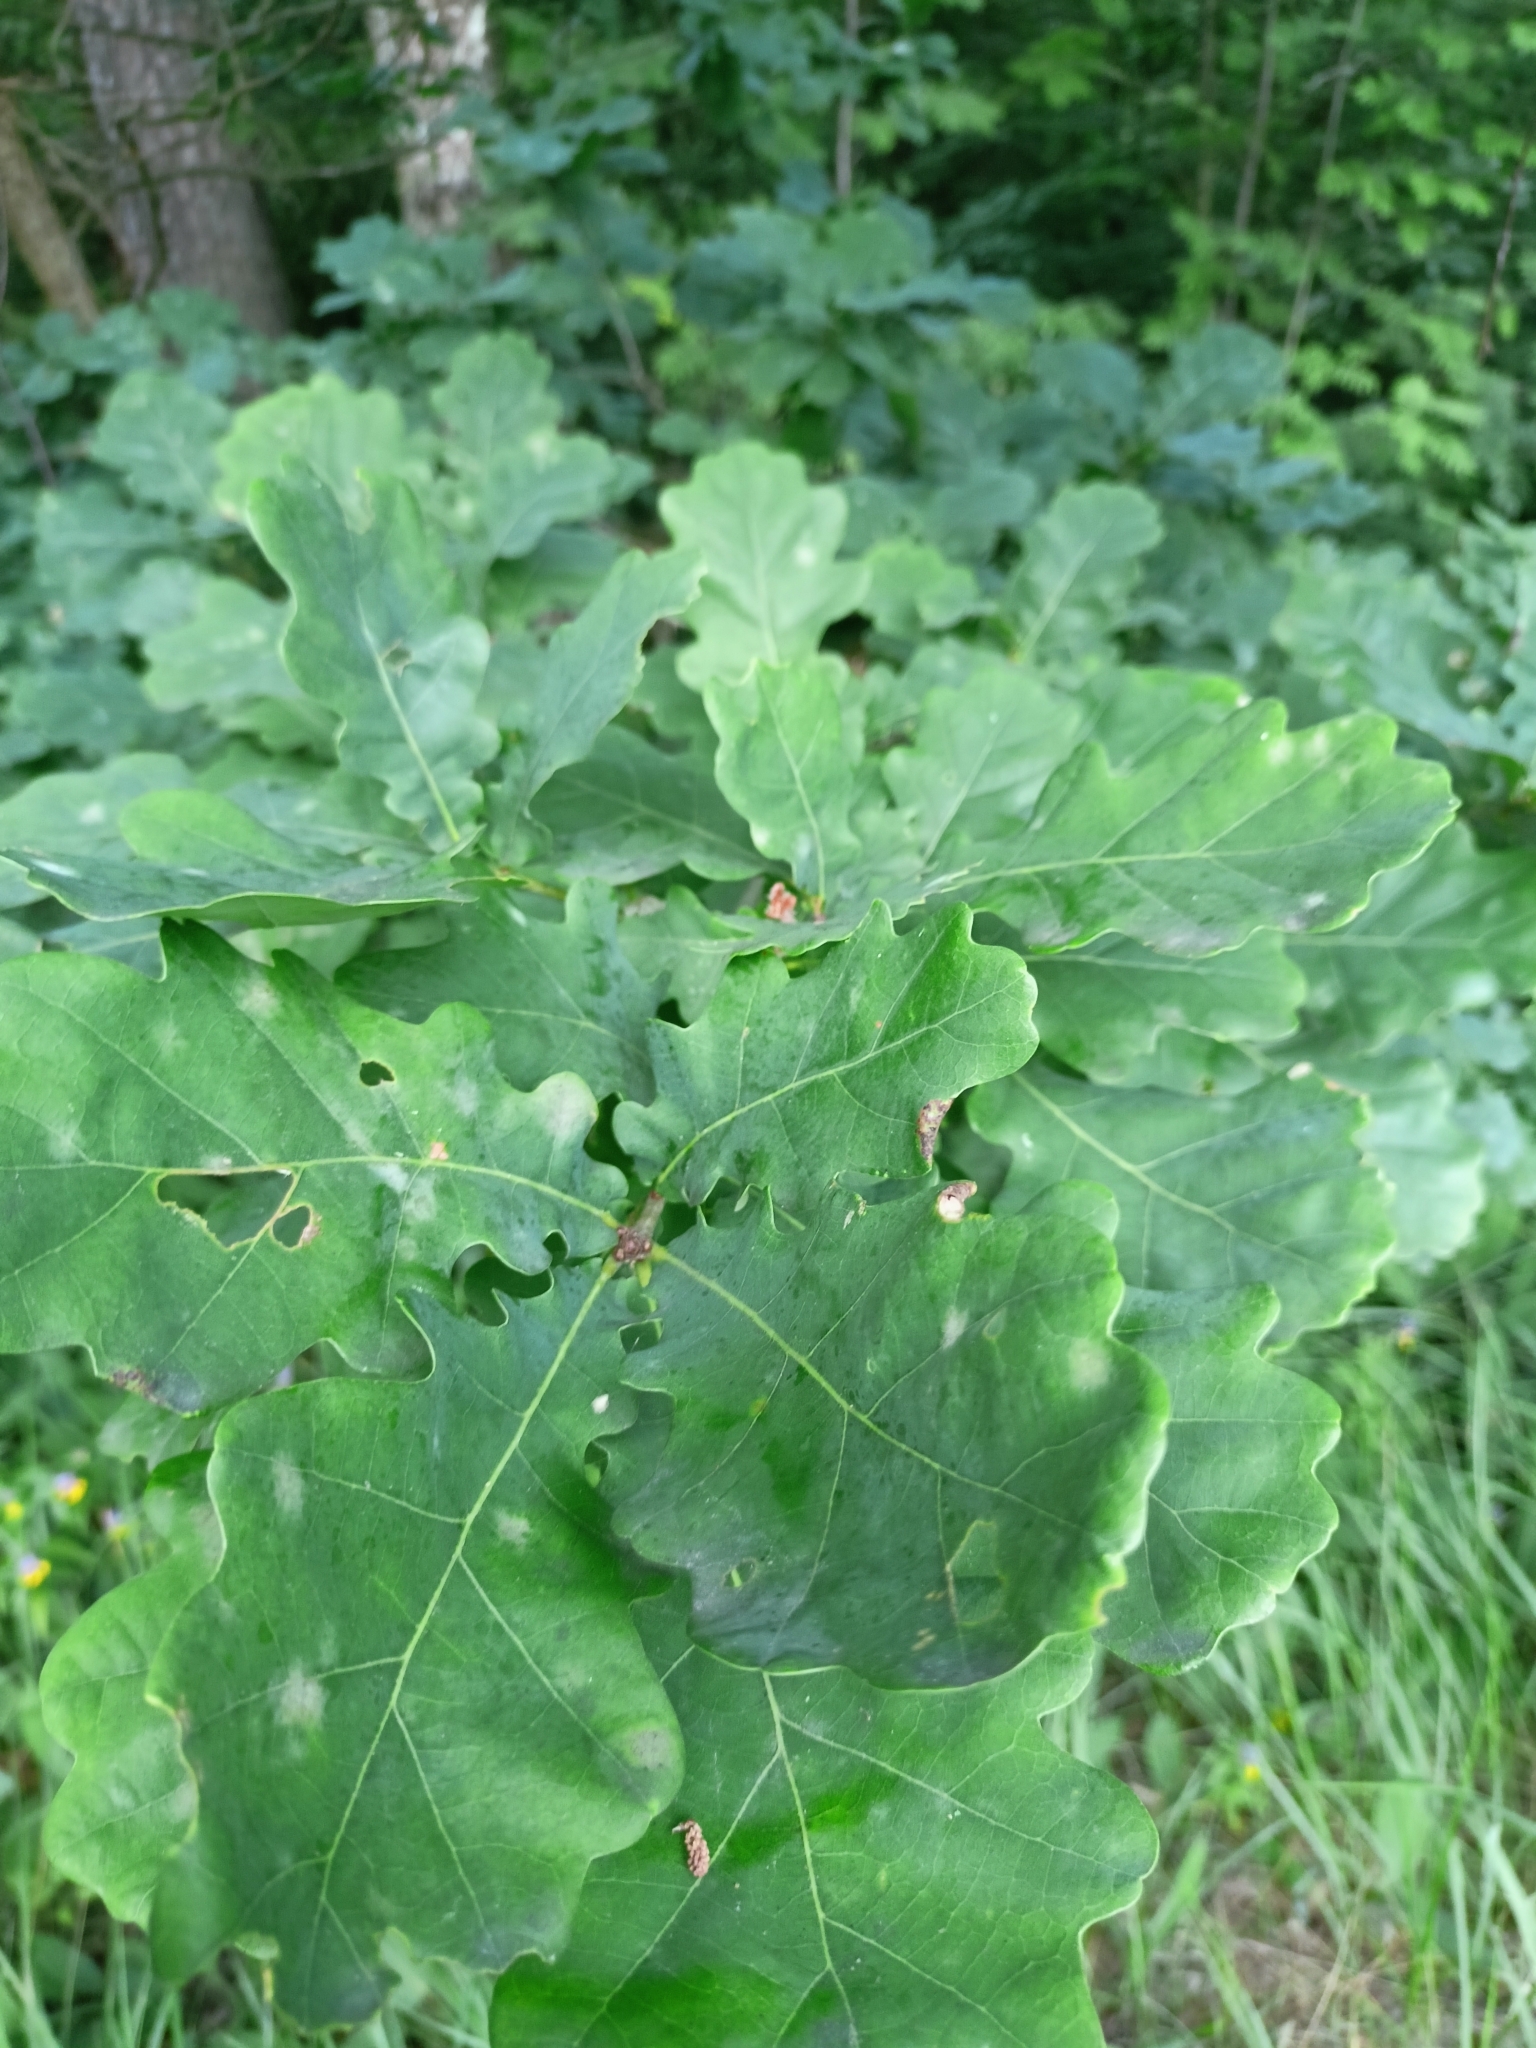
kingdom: Plantae
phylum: Tracheophyta
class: Magnoliopsida
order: Fagales
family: Fagaceae
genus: Quercus
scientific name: Quercus robur
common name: Pedunculate oak
